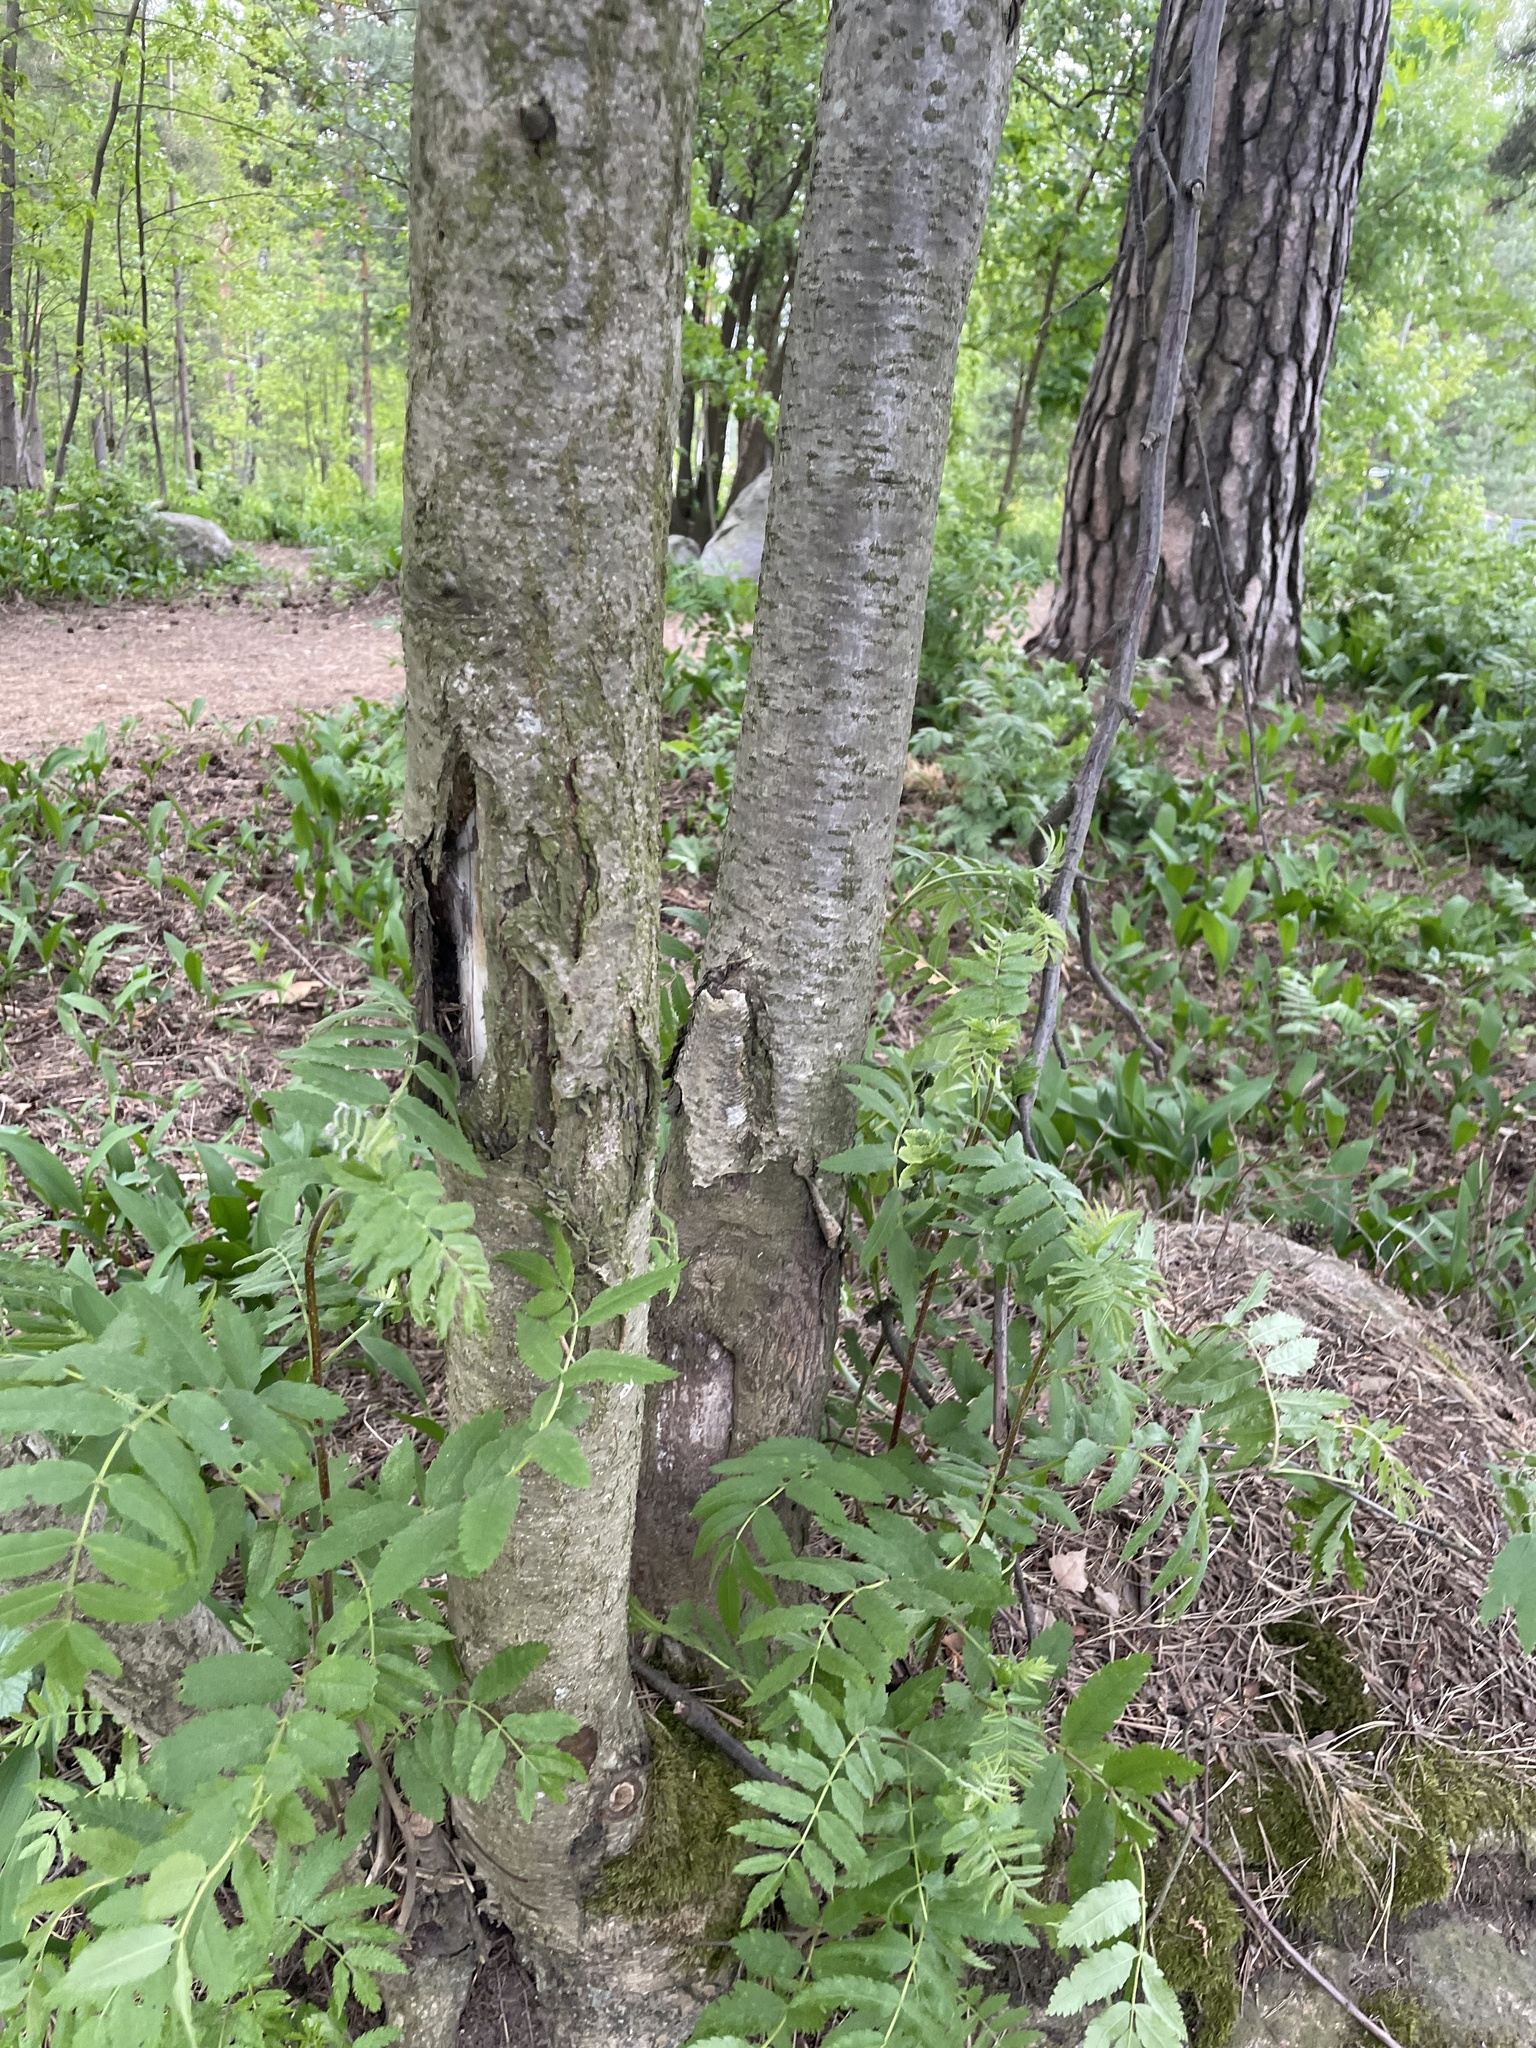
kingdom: Plantae
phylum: Tracheophyta
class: Magnoliopsida
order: Rosales
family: Rosaceae
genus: Sorbus
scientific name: Sorbus aucuparia
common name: Rowan
